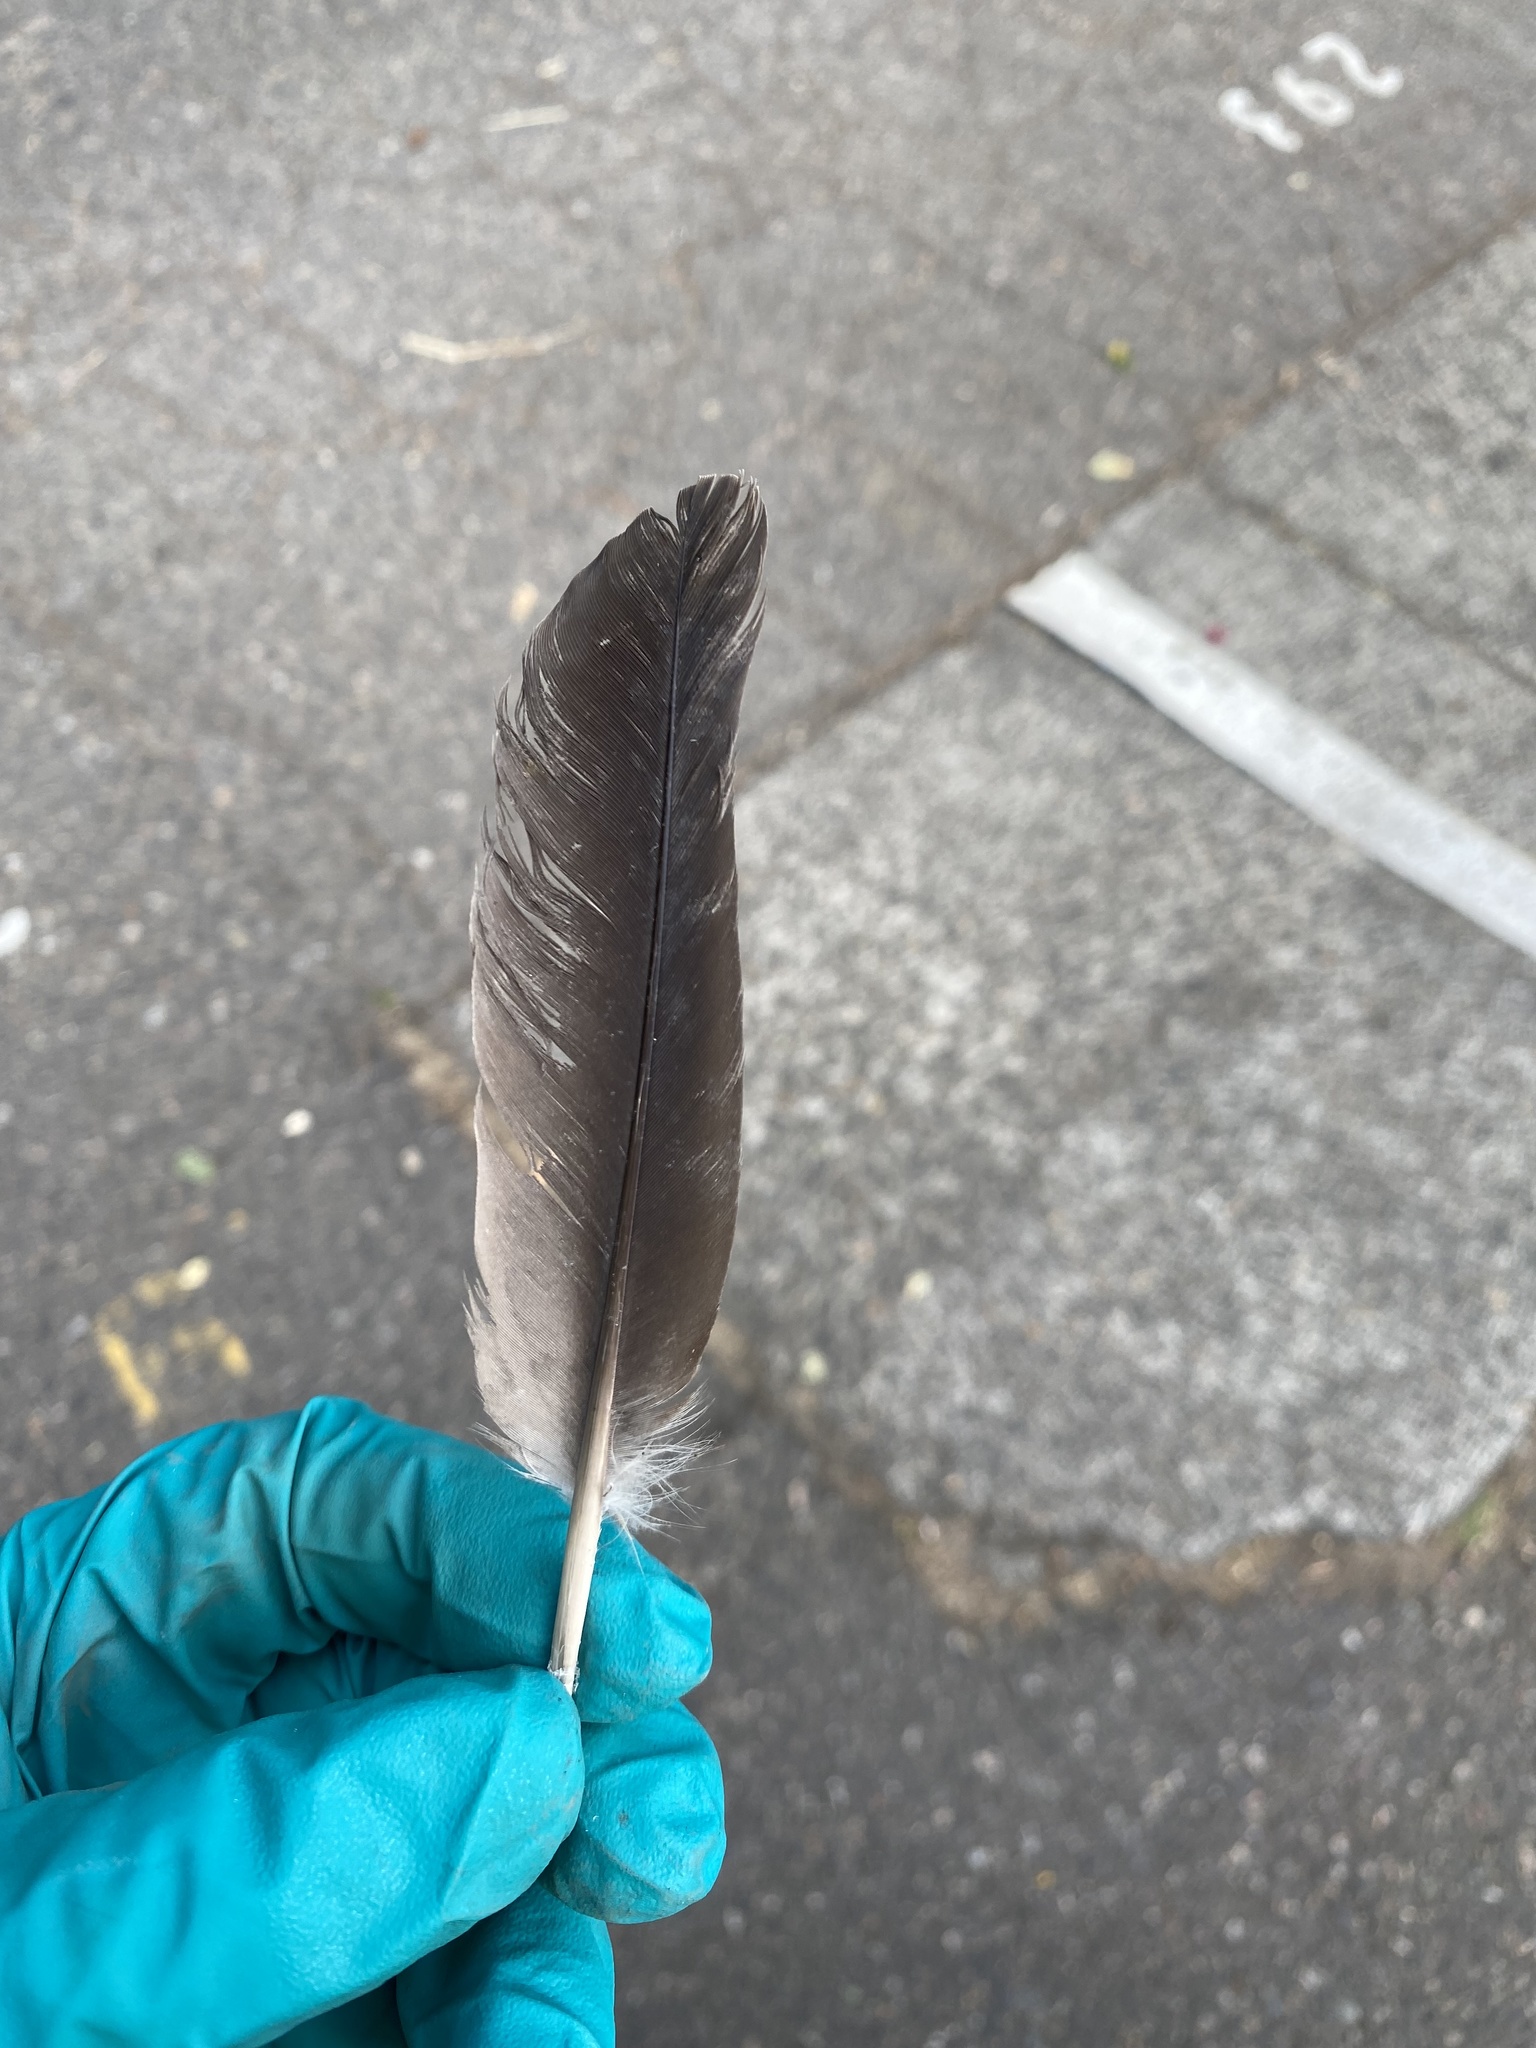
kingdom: Animalia
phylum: Chordata
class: Aves
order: Columbiformes
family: Columbidae
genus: Patagioenas
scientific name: Patagioenas fasciata
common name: Band-tailed pigeon
